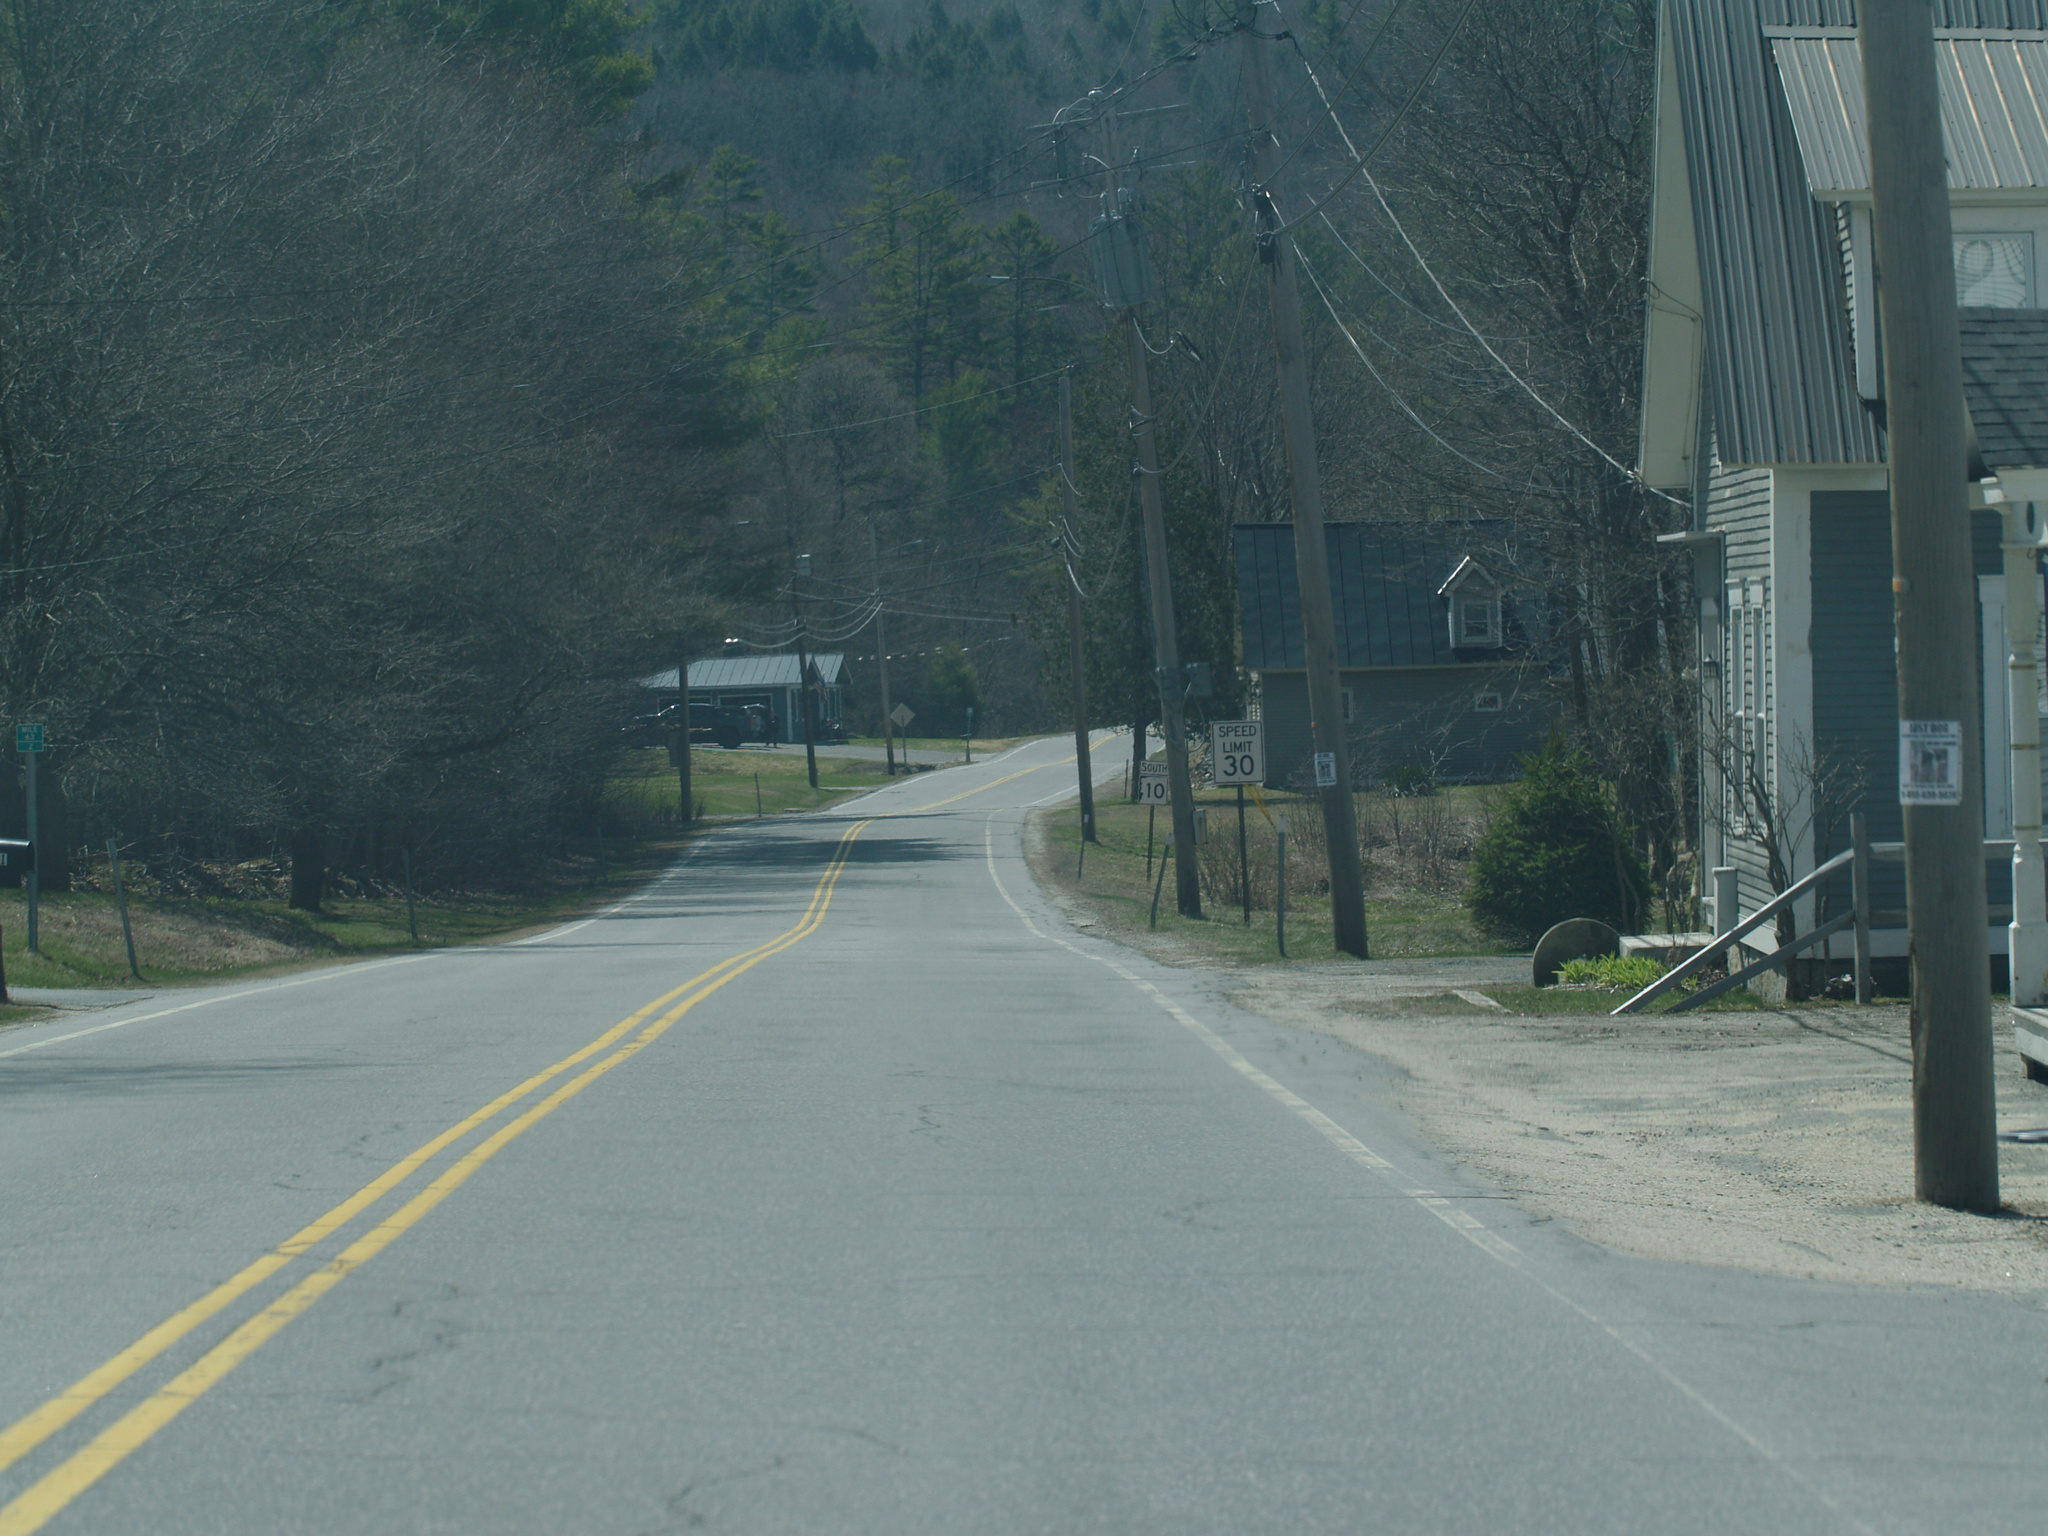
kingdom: Plantae
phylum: Tracheophyta
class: Pinopsida
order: Pinales
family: Pinaceae
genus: Pinus
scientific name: Pinus strobus
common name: Weymouth pine
